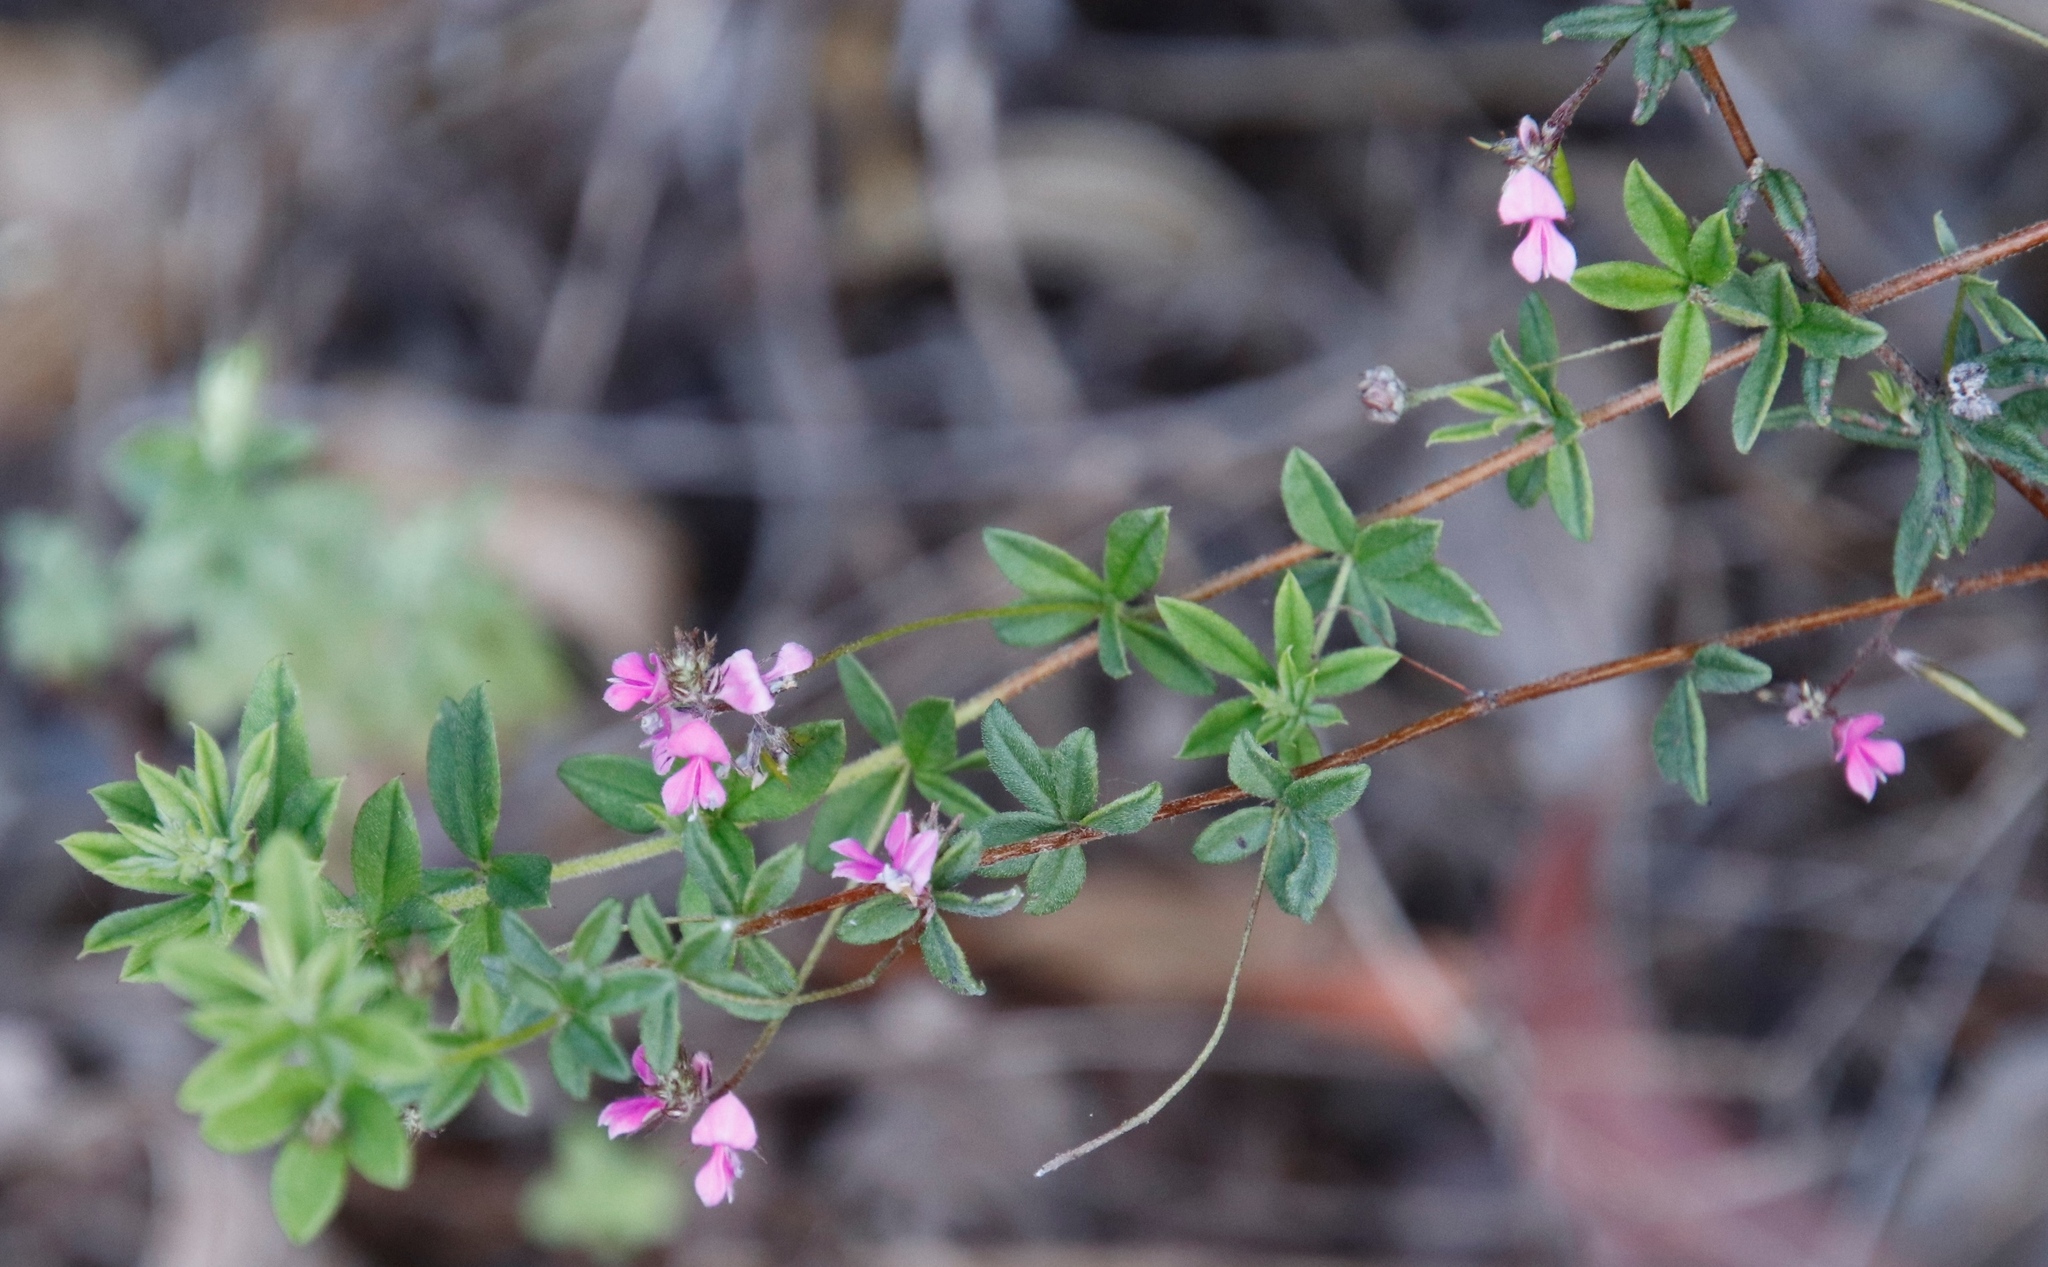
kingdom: Plantae
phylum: Tracheophyta
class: Magnoliopsida
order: Fabales
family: Fabaceae
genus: Indigofera
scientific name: Indigofera filiformis
